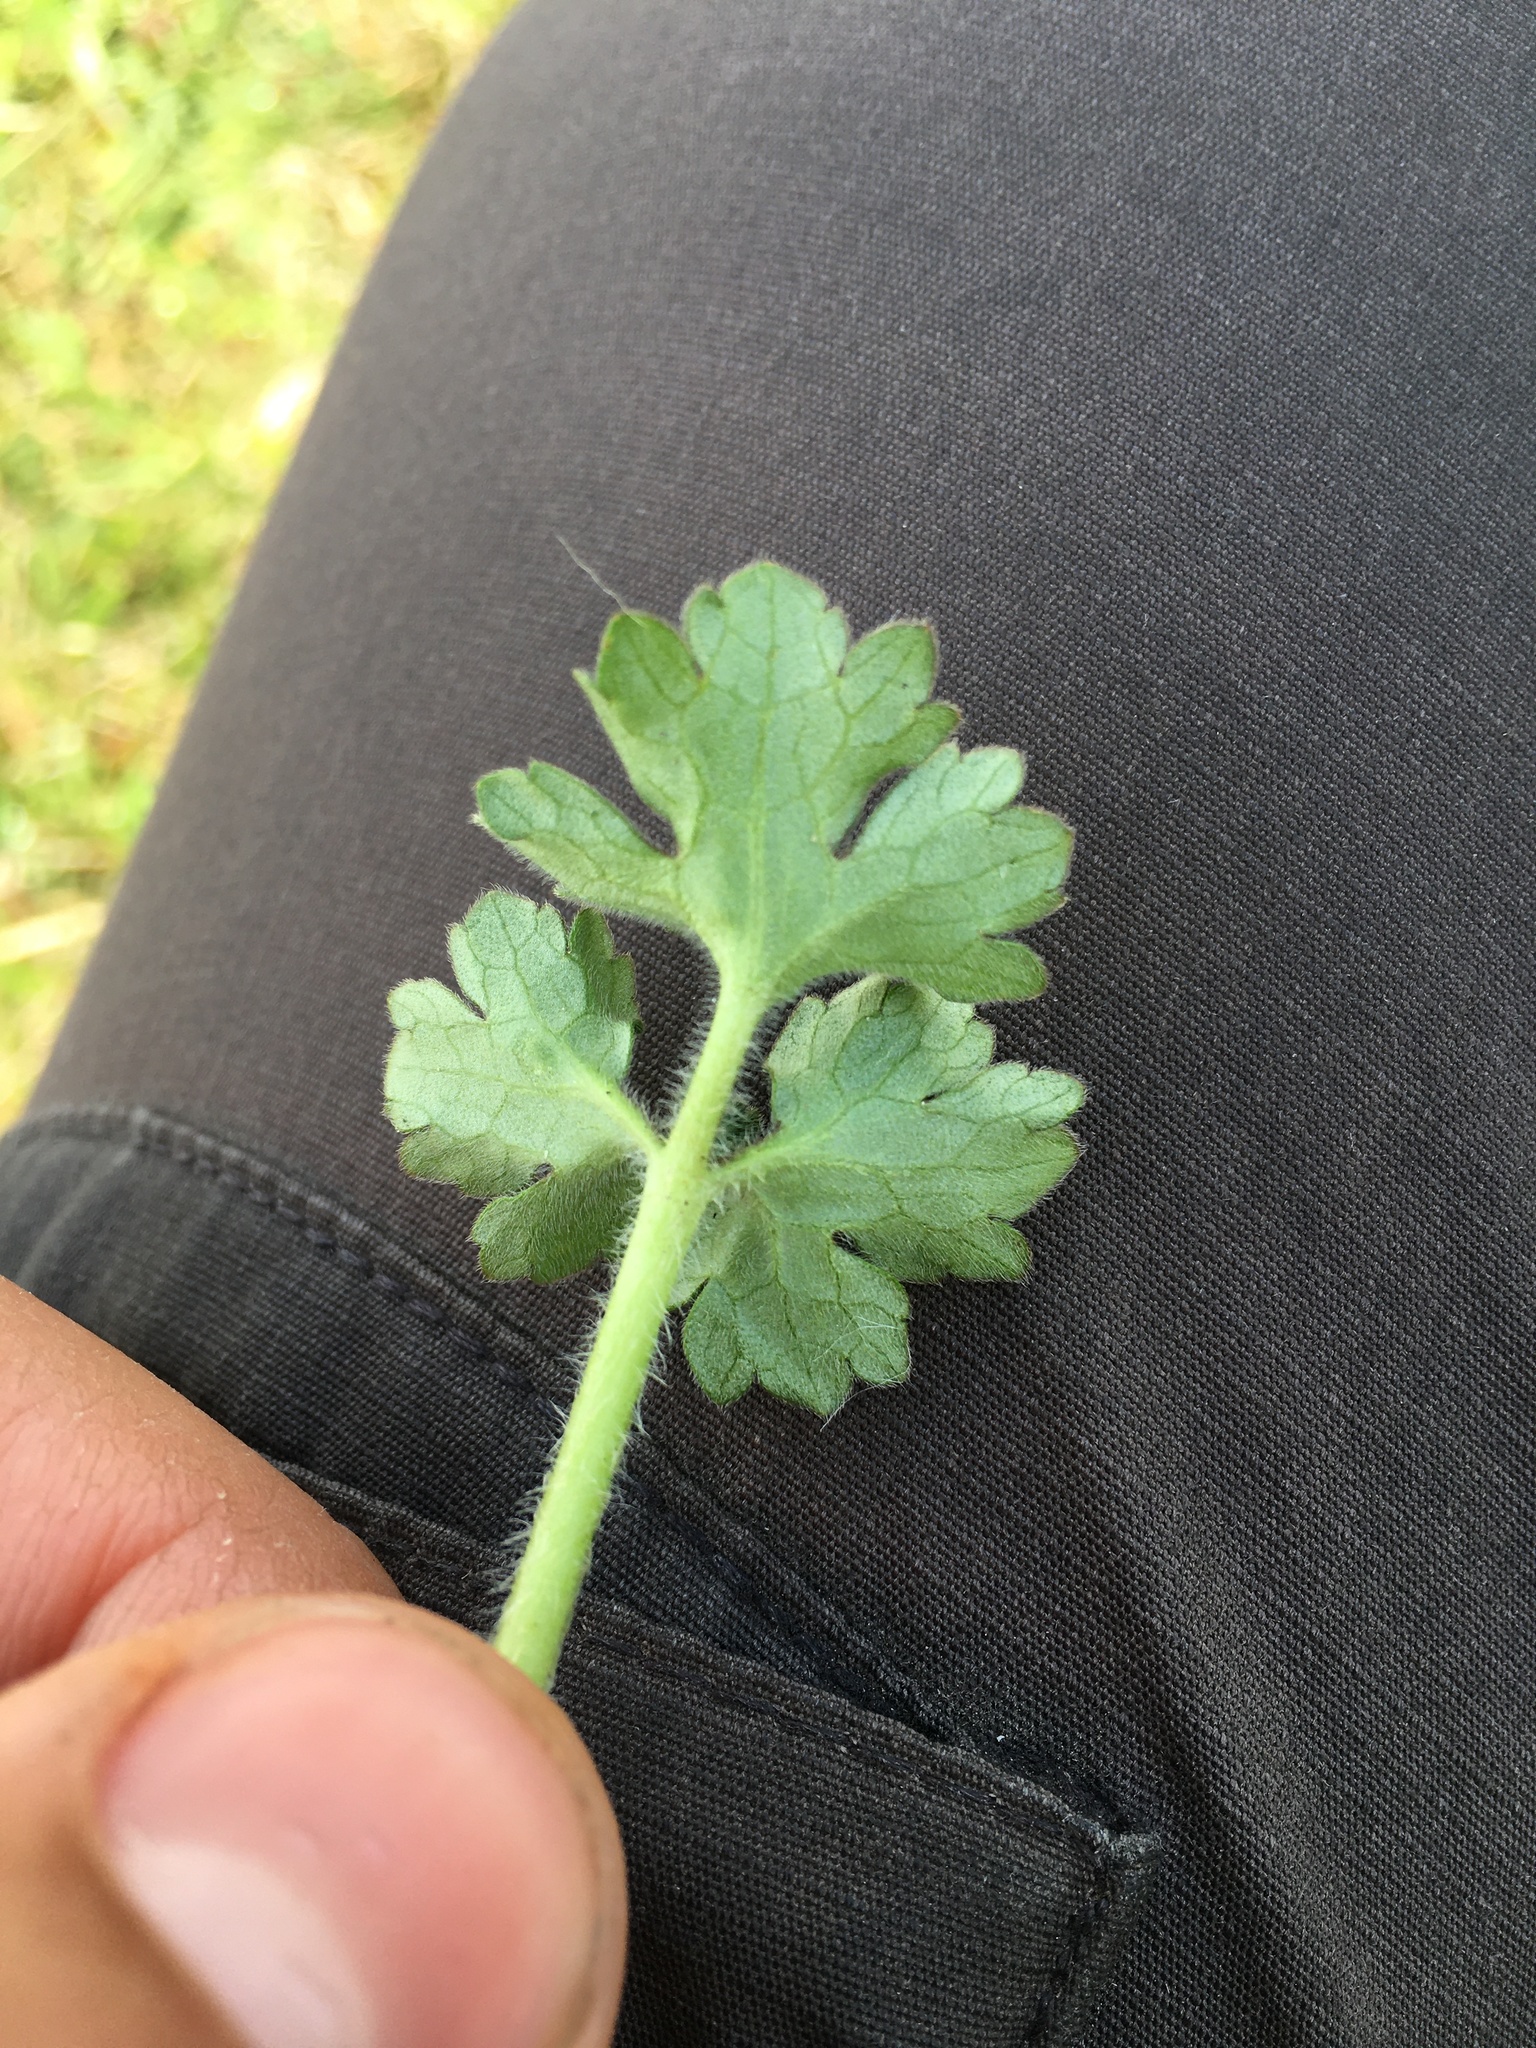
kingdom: Plantae
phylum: Tracheophyta
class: Magnoliopsida
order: Ranunculales
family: Ranunculaceae
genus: Ranunculus
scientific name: Ranunculus bulbosus
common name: Bulbous buttercup
